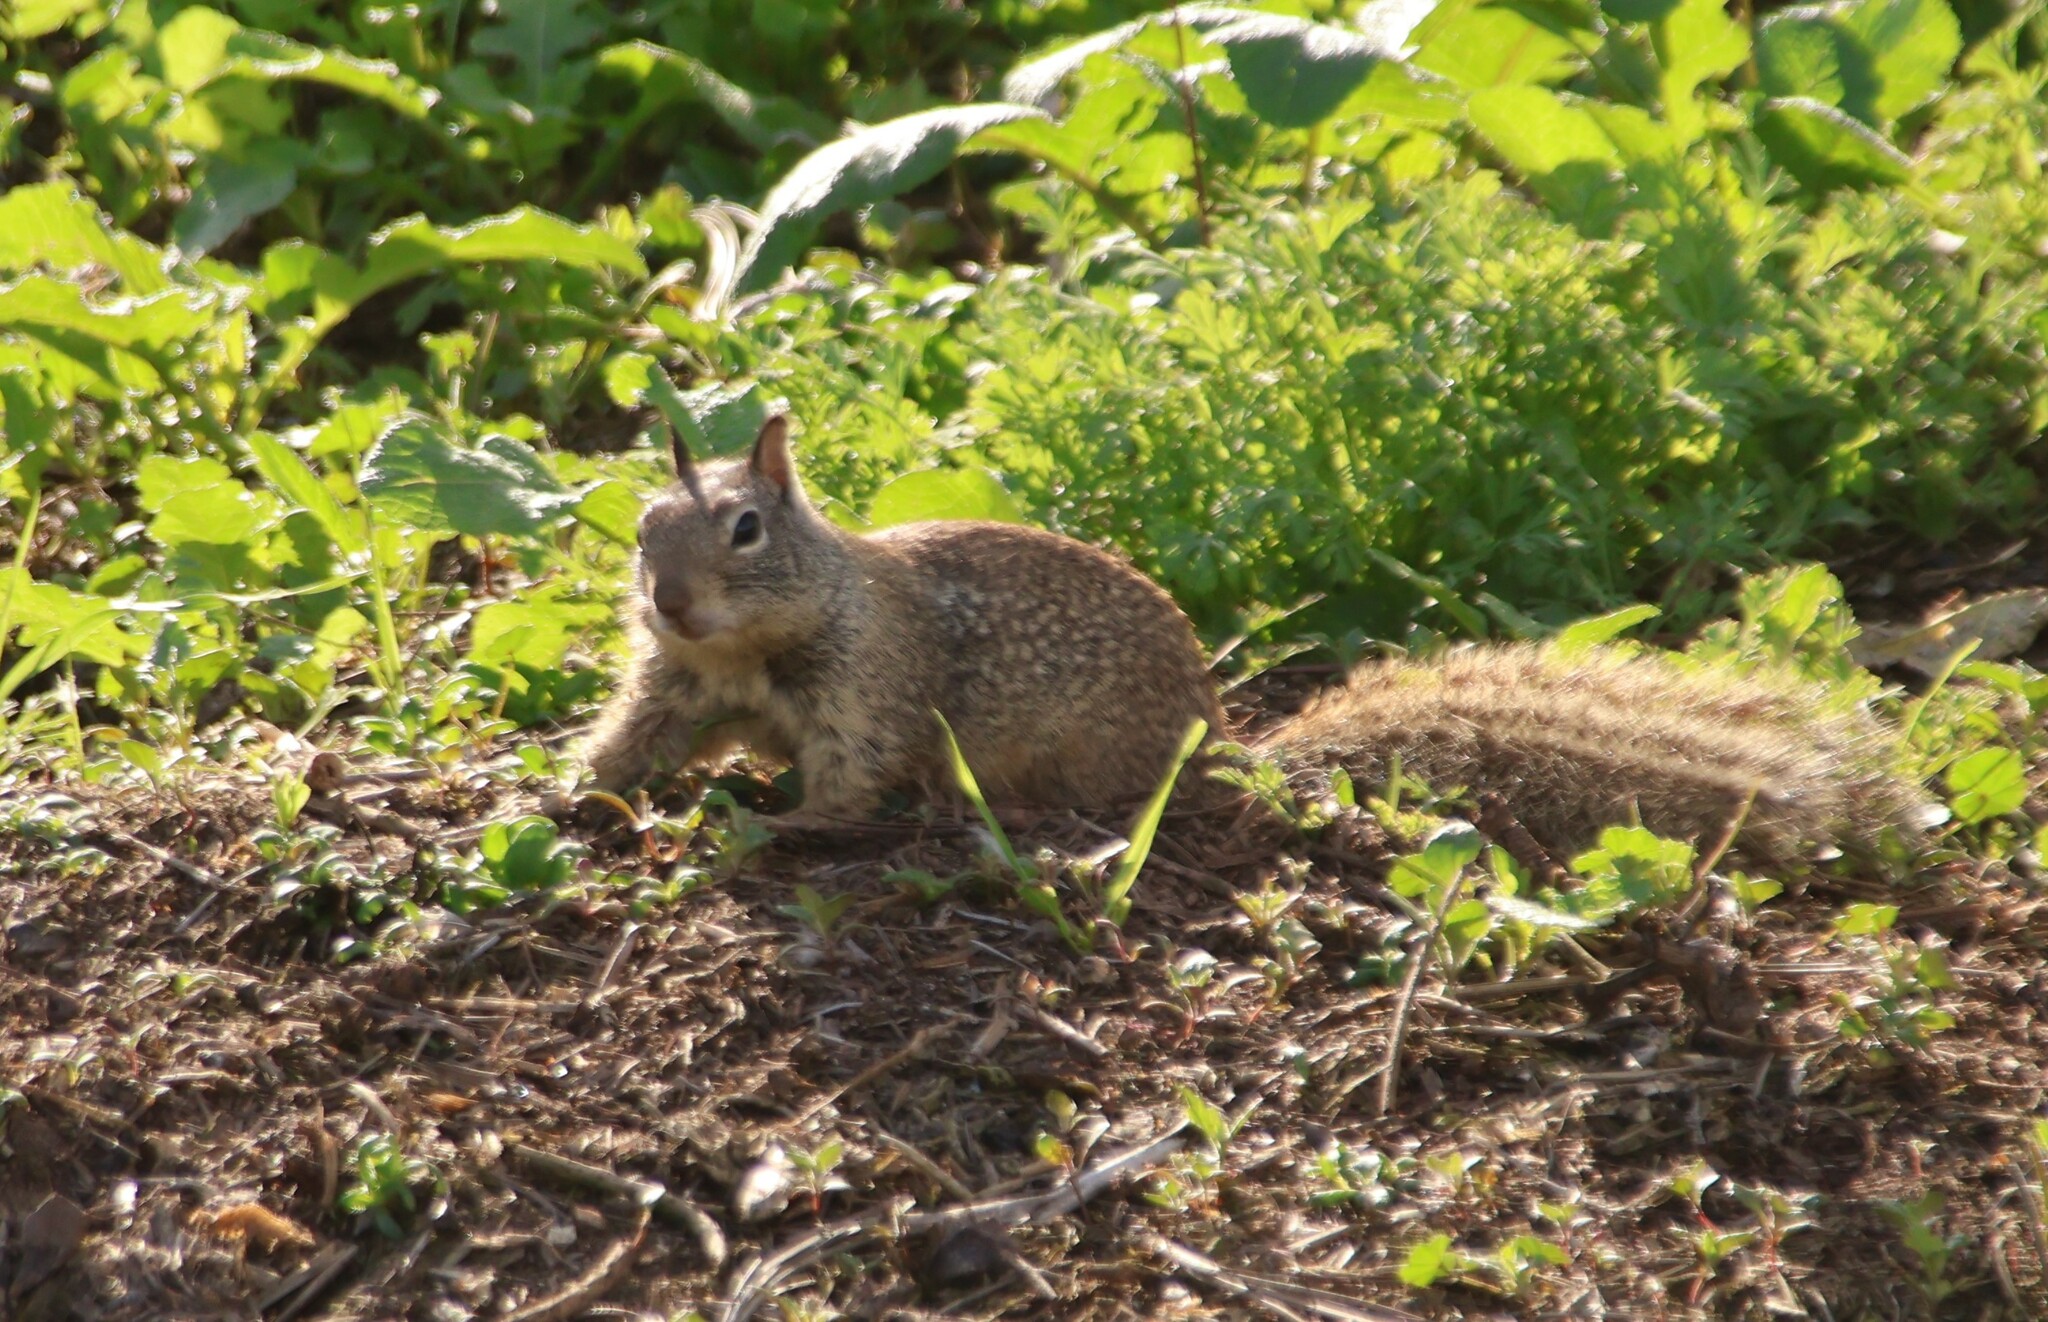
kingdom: Animalia
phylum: Chordata
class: Mammalia
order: Rodentia
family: Sciuridae
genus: Otospermophilus
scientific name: Otospermophilus beecheyi
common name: California ground squirrel
